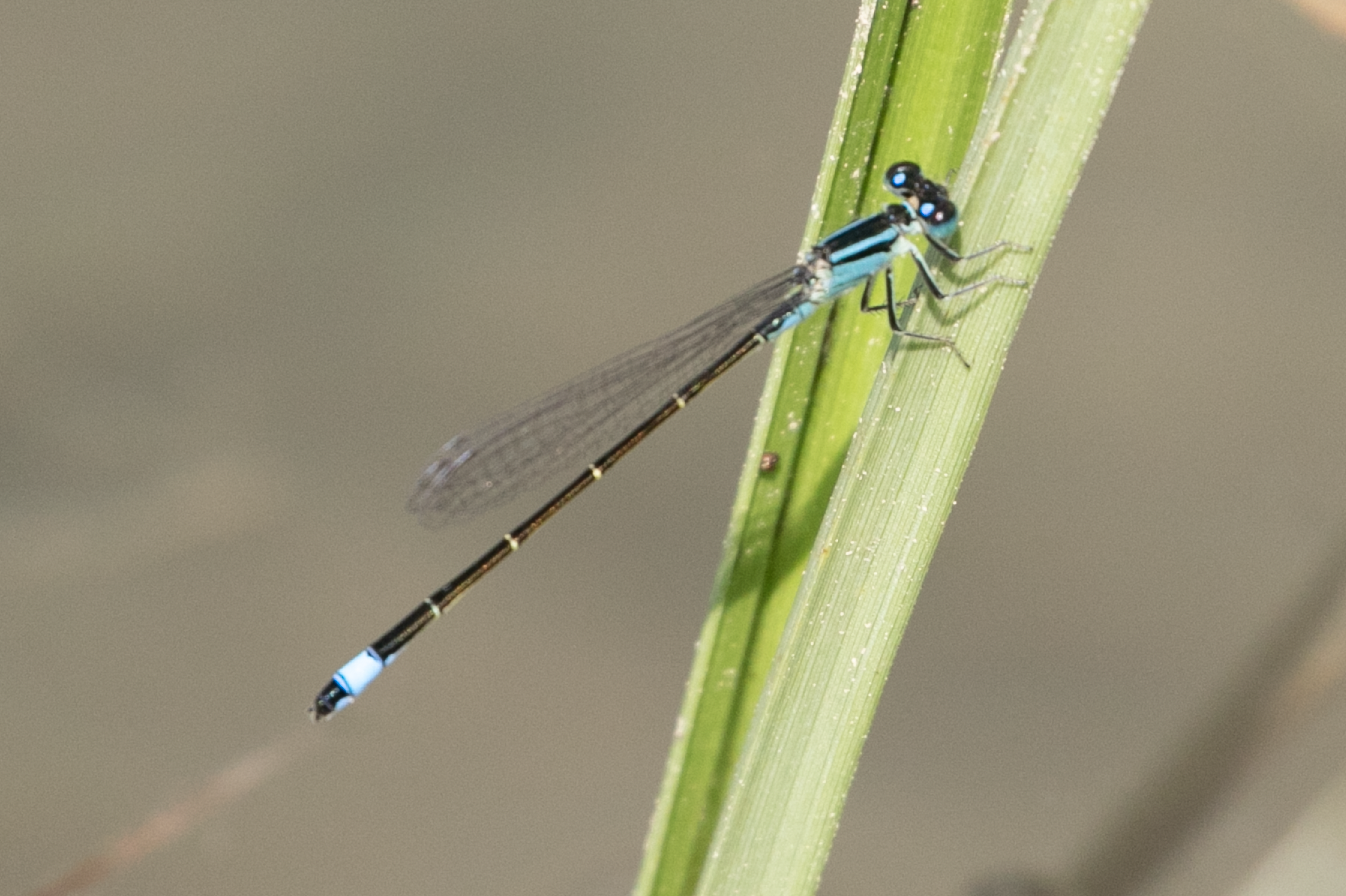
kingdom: Animalia
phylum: Arthropoda
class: Insecta
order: Odonata
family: Coenagrionidae
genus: Ischnura
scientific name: Ischnura elegans
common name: Blue-tailed damselfly
